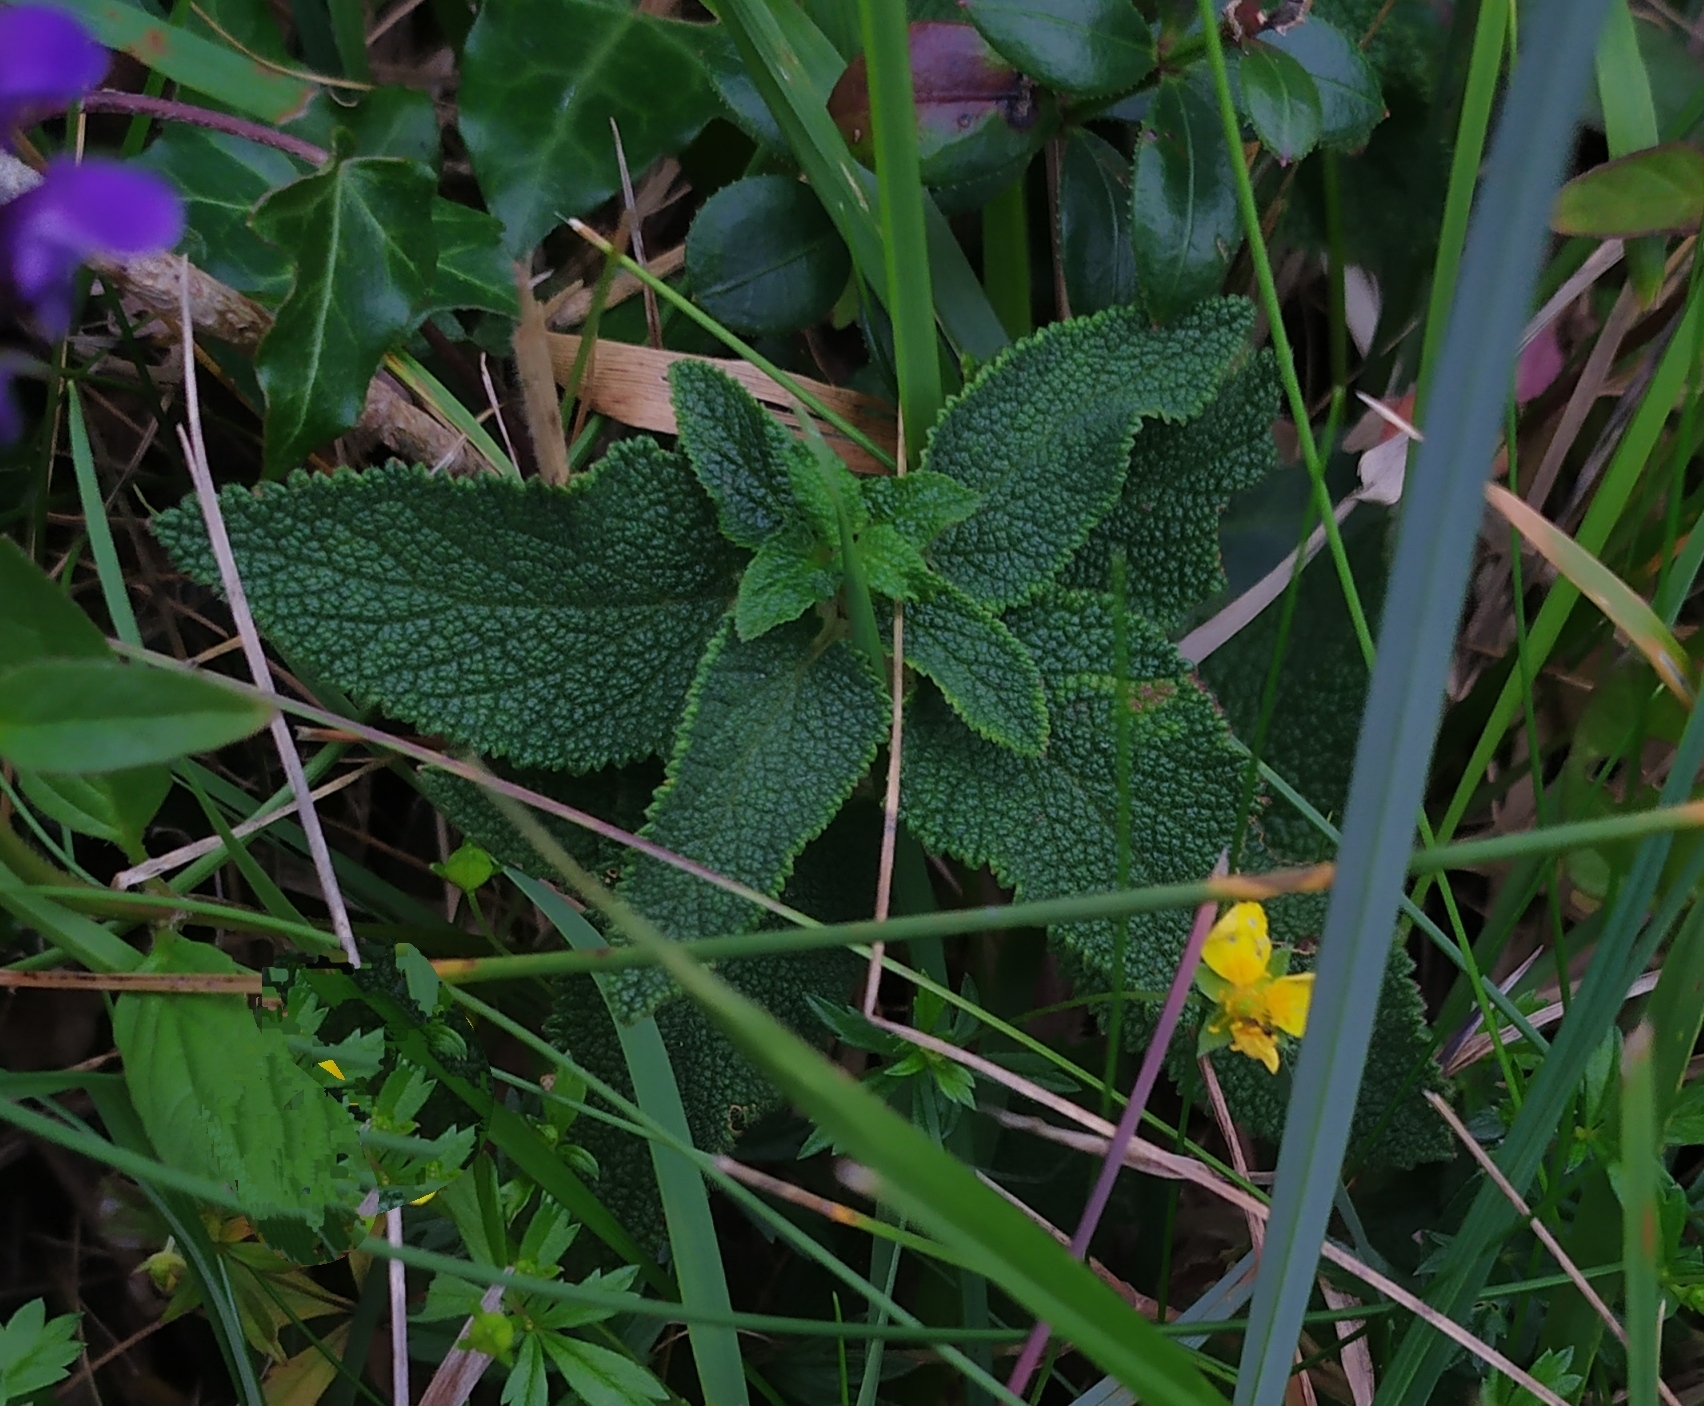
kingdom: Plantae
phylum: Tracheophyta
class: Magnoliopsida
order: Lamiales
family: Lamiaceae
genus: Teucrium
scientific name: Teucrium scorodonia
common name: Woodland germander
